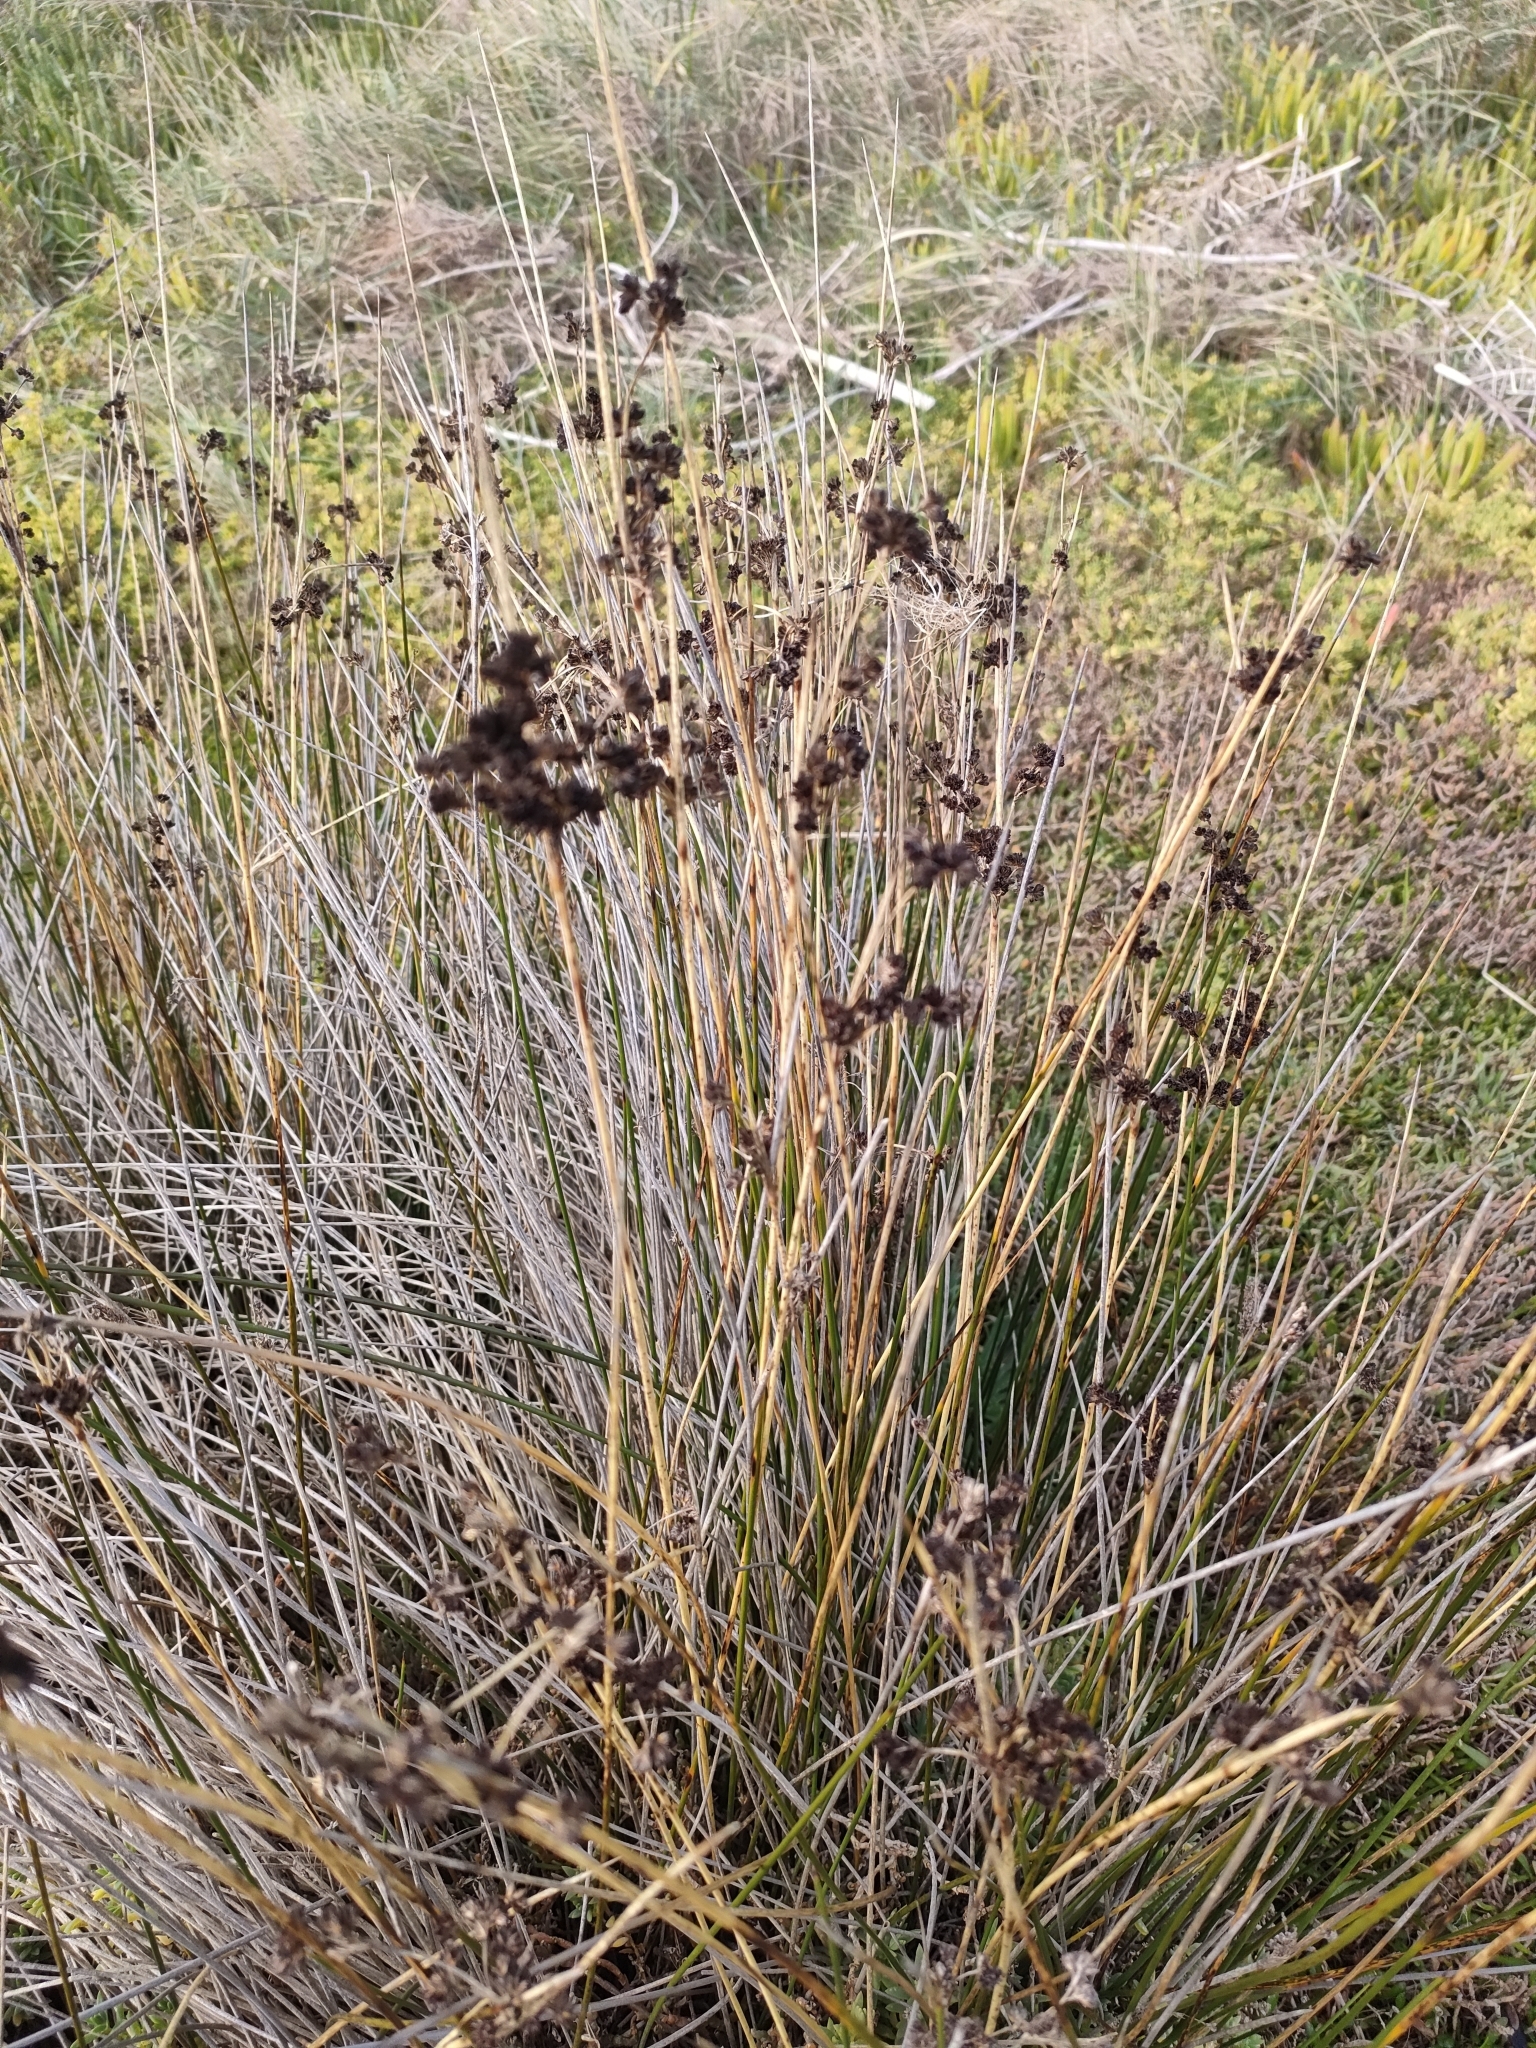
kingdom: Plantae
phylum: Tracheophyta
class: Liliopsida
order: Poales
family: Juncaceae
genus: Juncus
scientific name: Juncus kraussii
